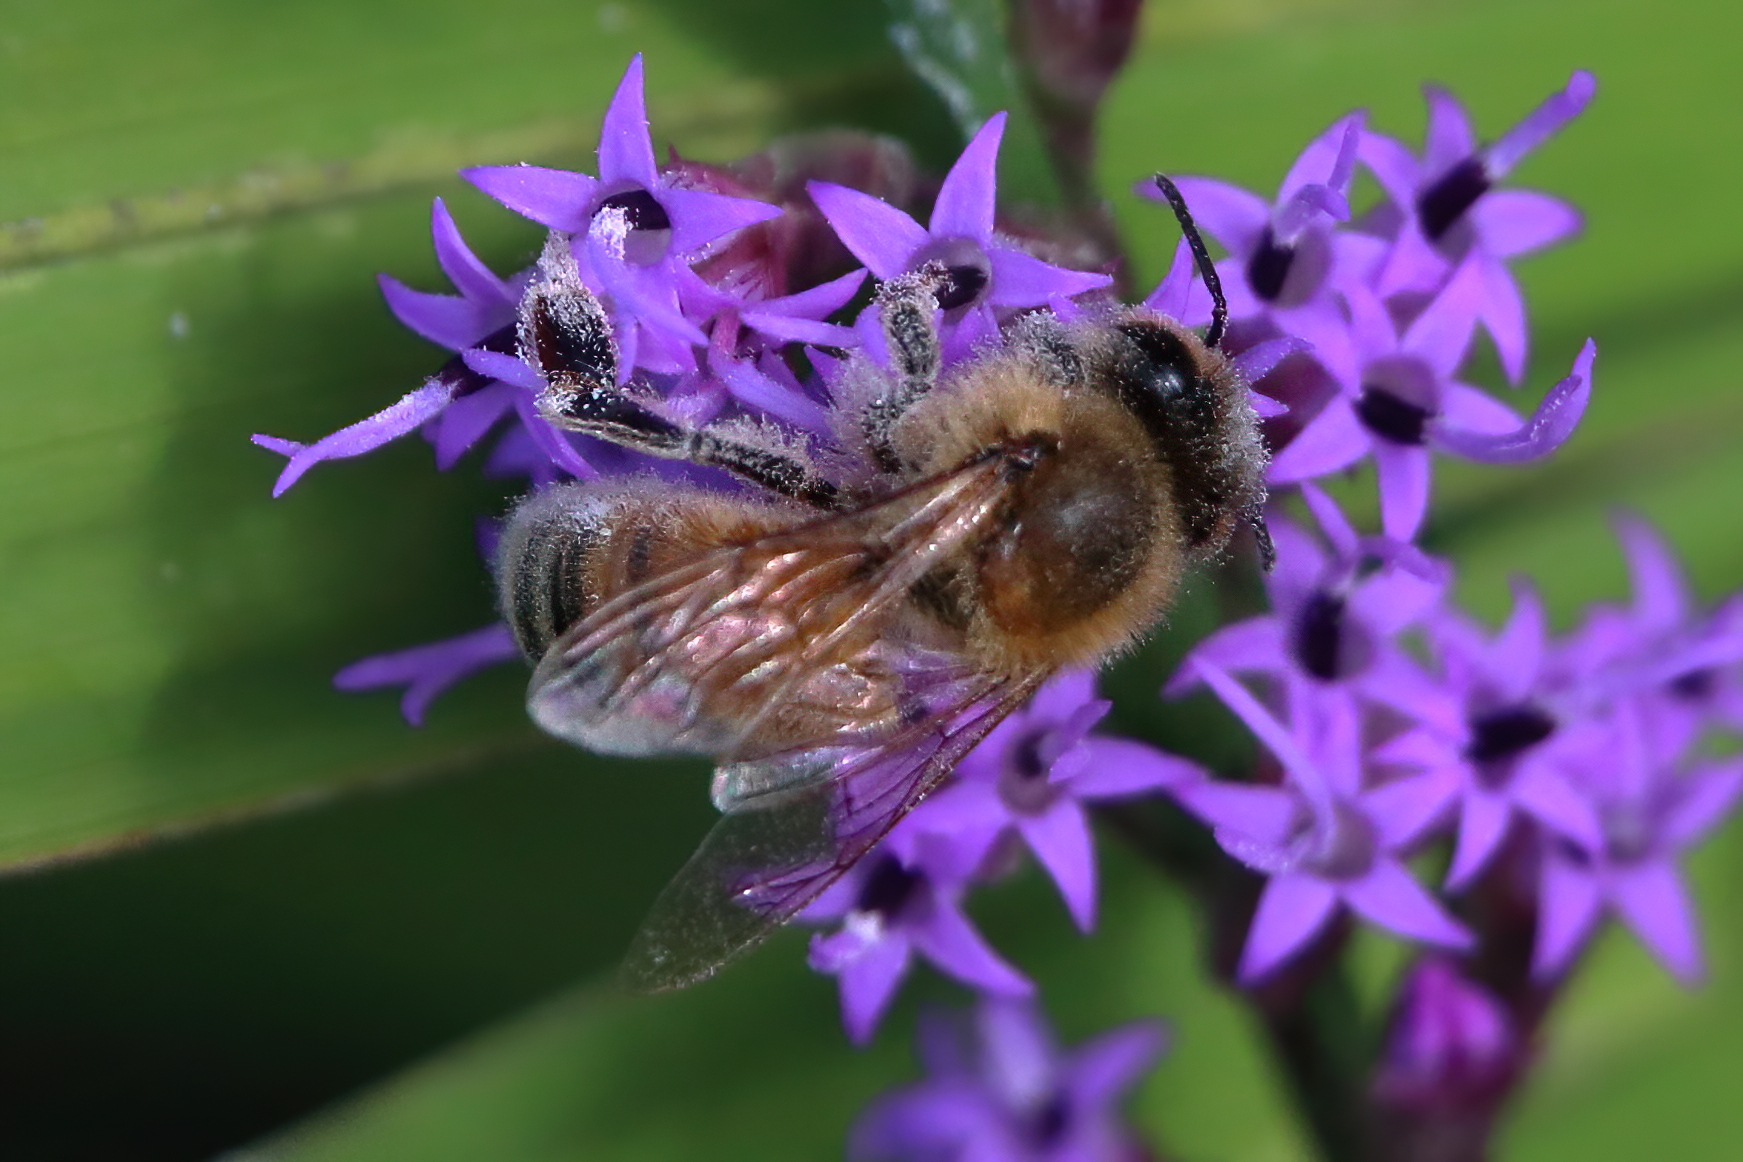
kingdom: Animalia
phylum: Arthropoda
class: Insecta
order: Hymenoptera
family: Apidae
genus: Apis
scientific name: Apis mellifera
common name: Honey bee
